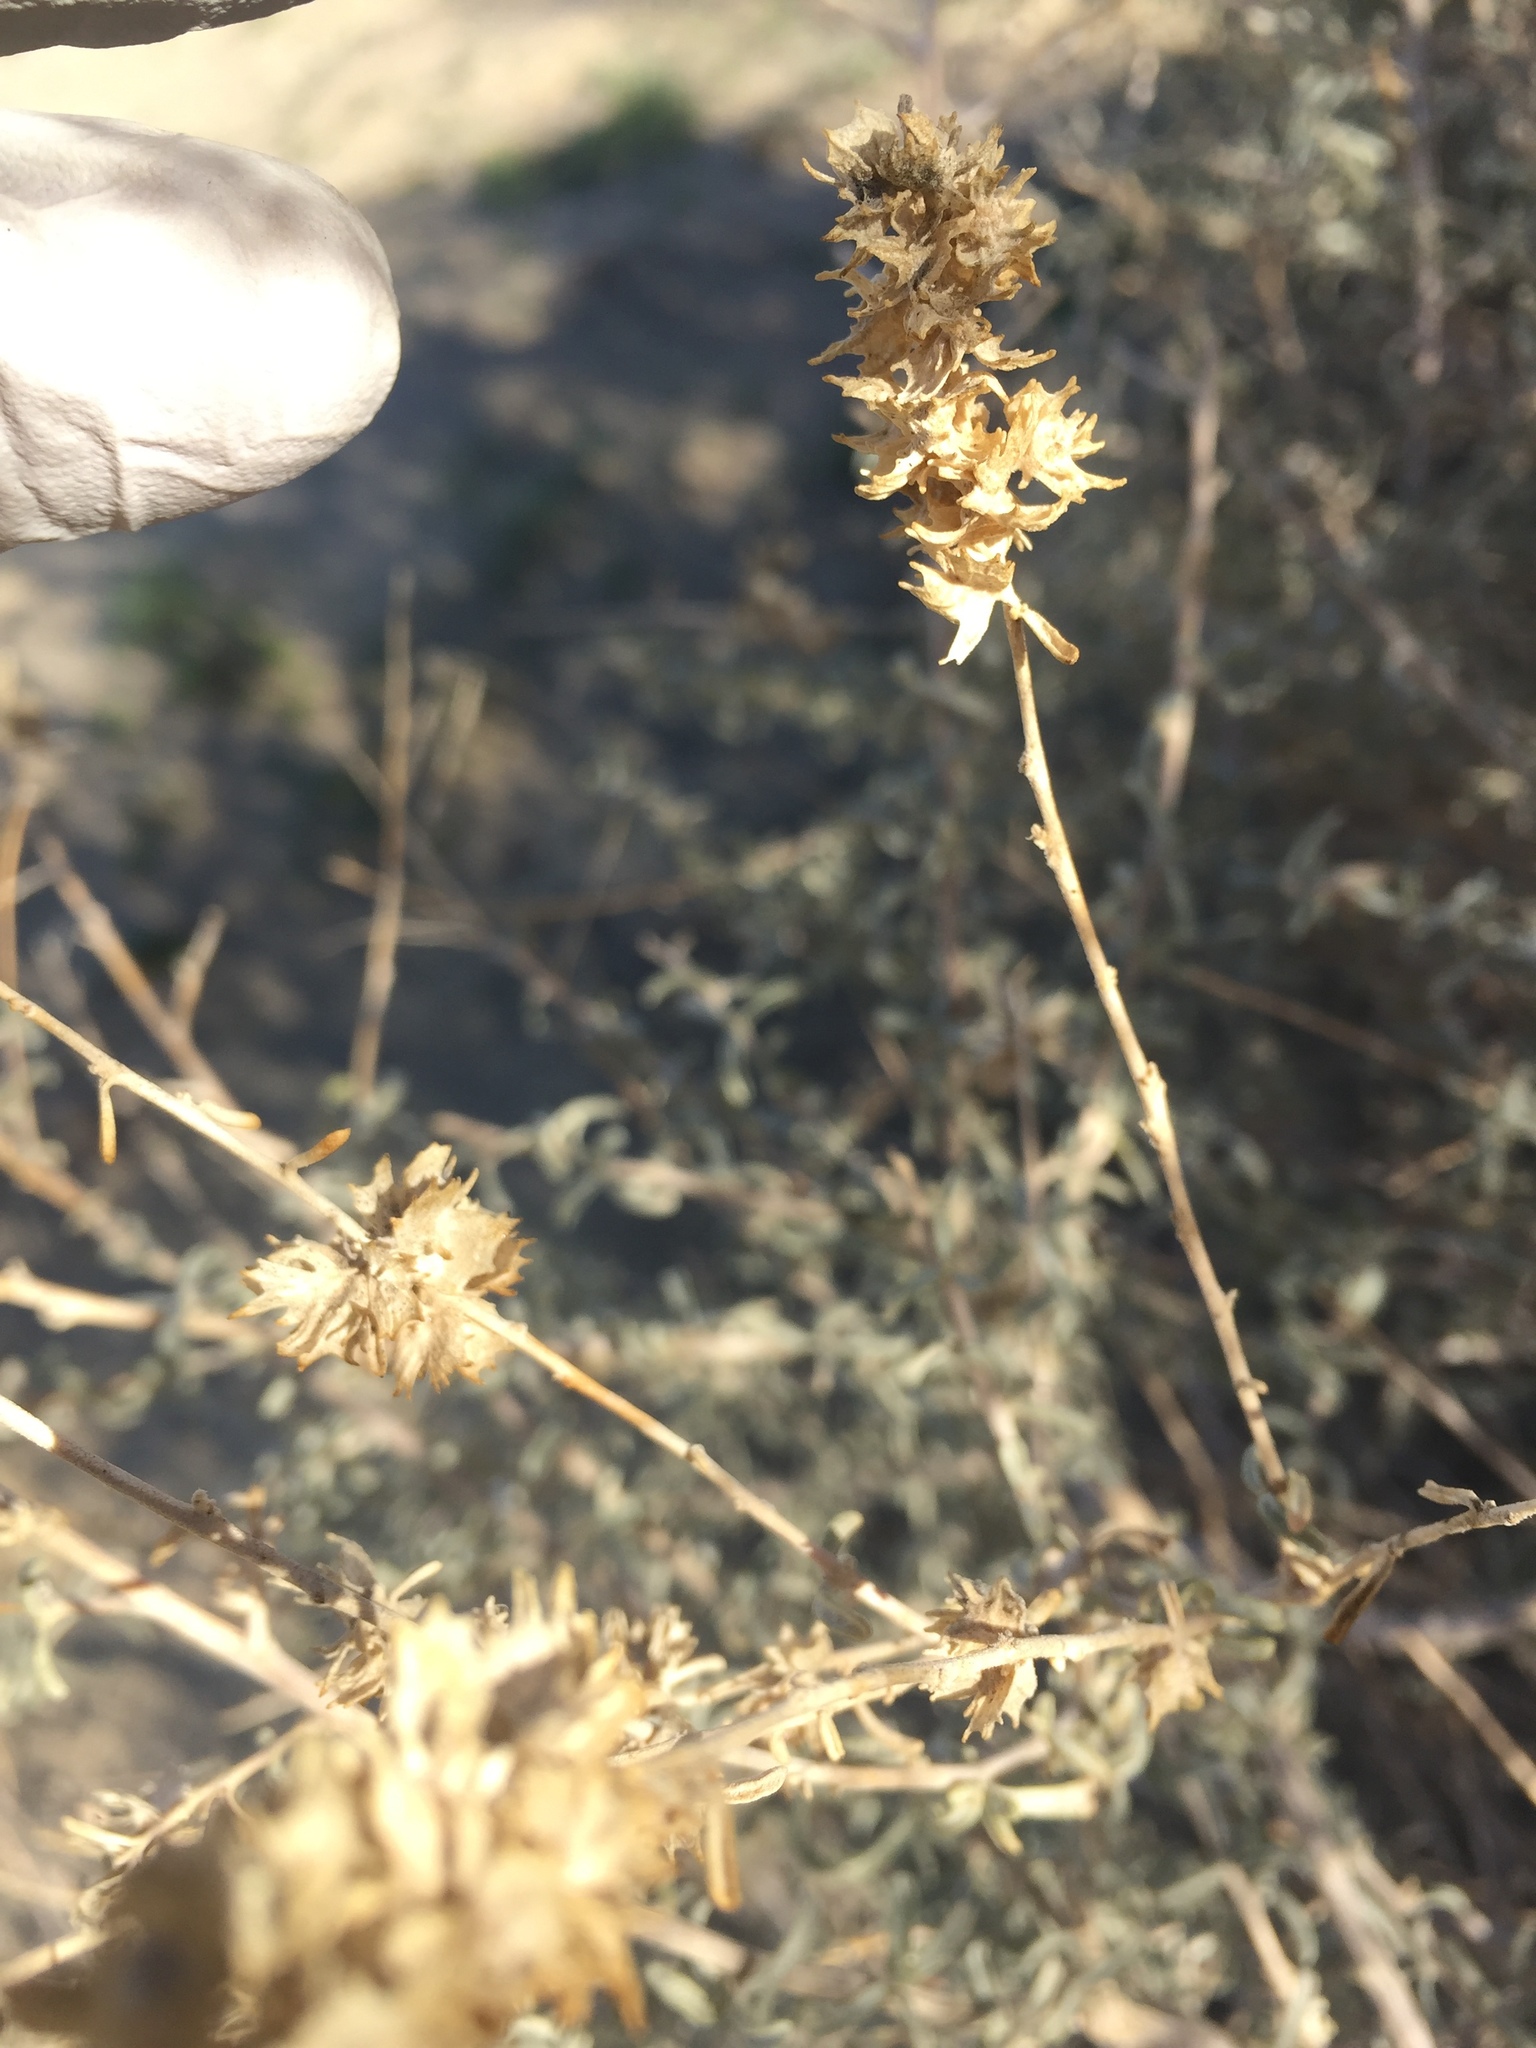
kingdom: Plantae
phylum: Tracheophyta
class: Magnoliopsida
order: Caryophyllales
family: Amaranthaceae
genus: Atriplex
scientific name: Atriplex canescens
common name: Four-wing saltbush
